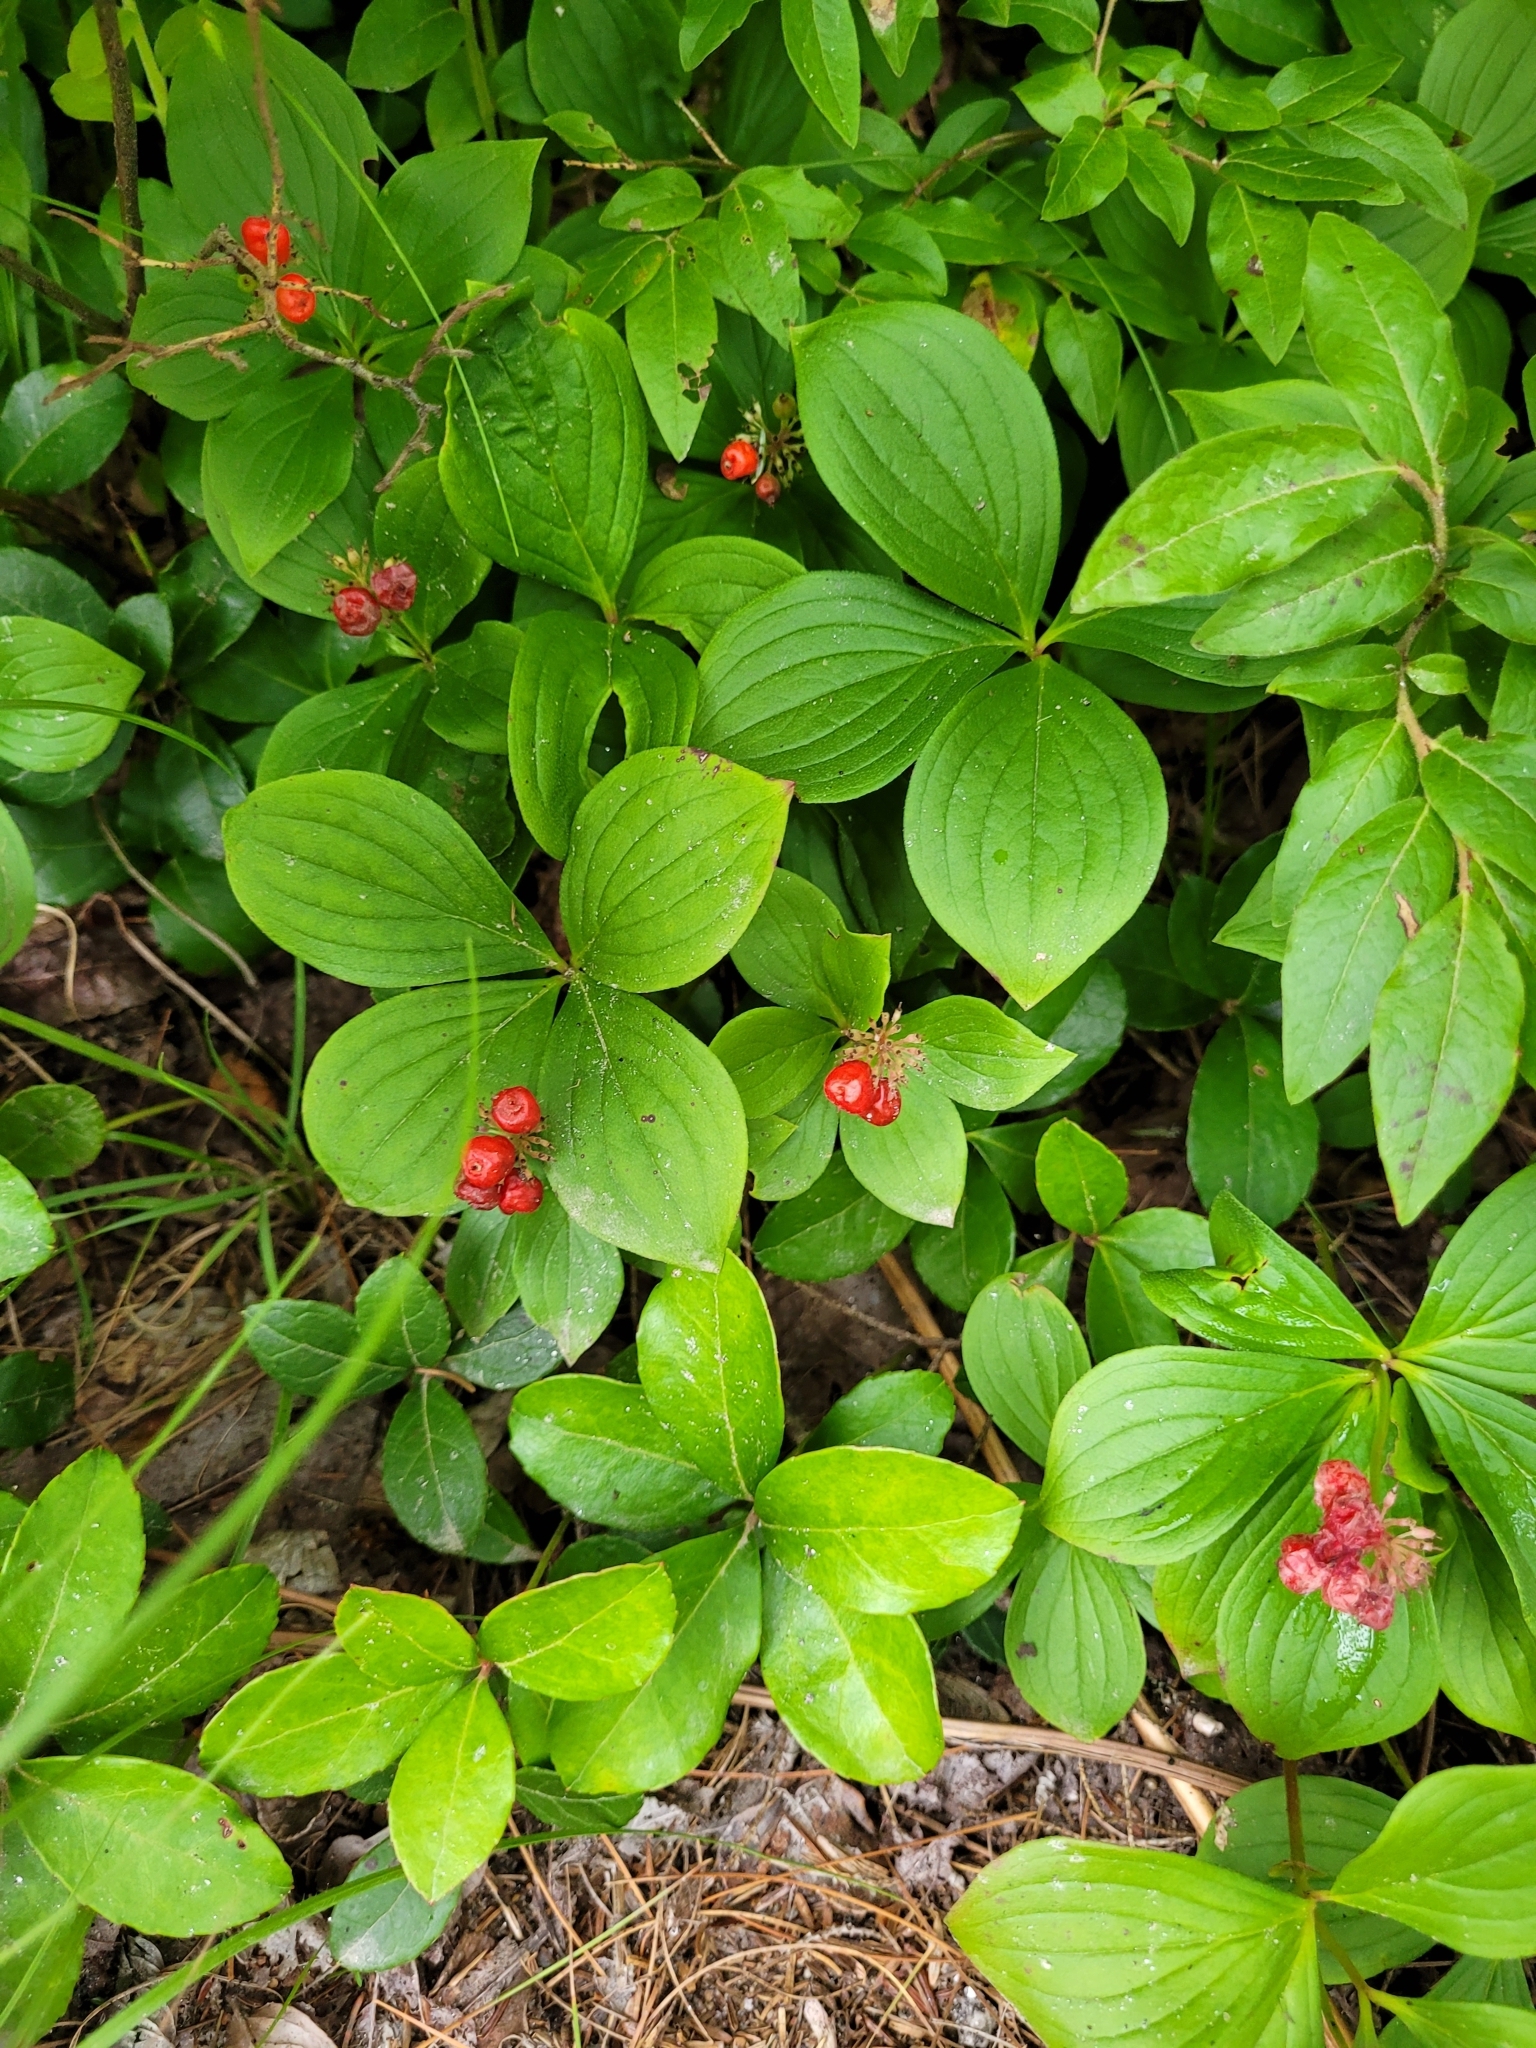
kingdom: Plantae
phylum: Tracheophyta
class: Magnoliopsida
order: Cornales
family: Cornaceae
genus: Cornus
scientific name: Cornus canadensis
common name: Creeping dogwood
